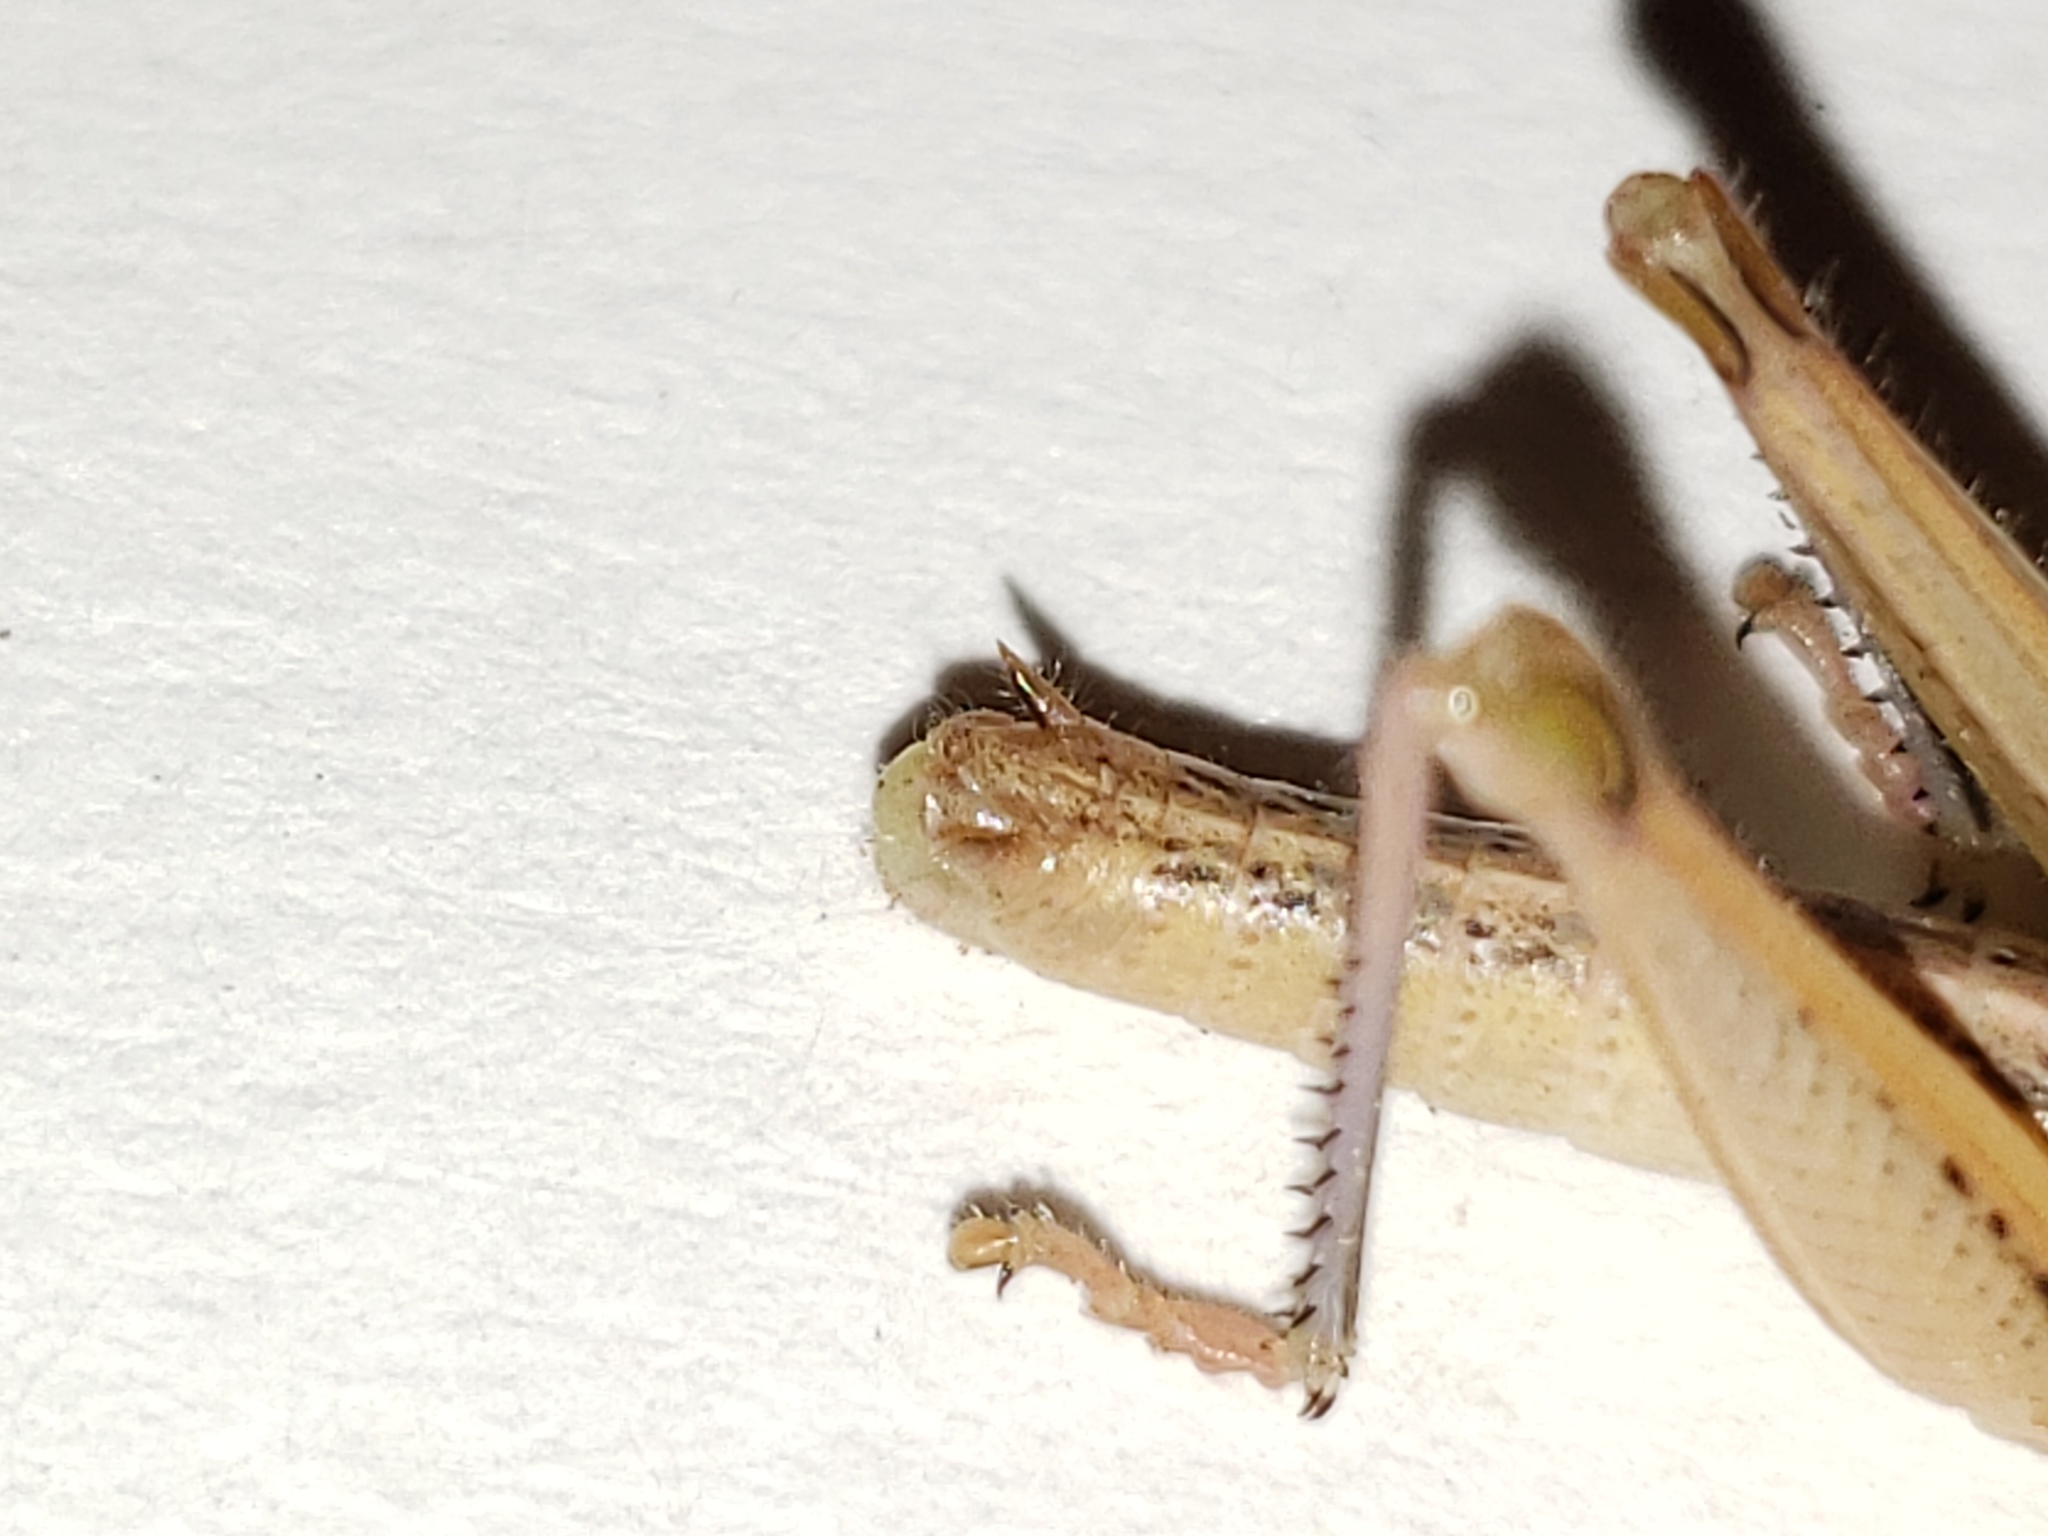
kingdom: Animalia
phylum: Arthropoda
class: Insecta
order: Orthoptera
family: Acrididae
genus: Aptenopedes
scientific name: Aptenopedes sphenarioides
